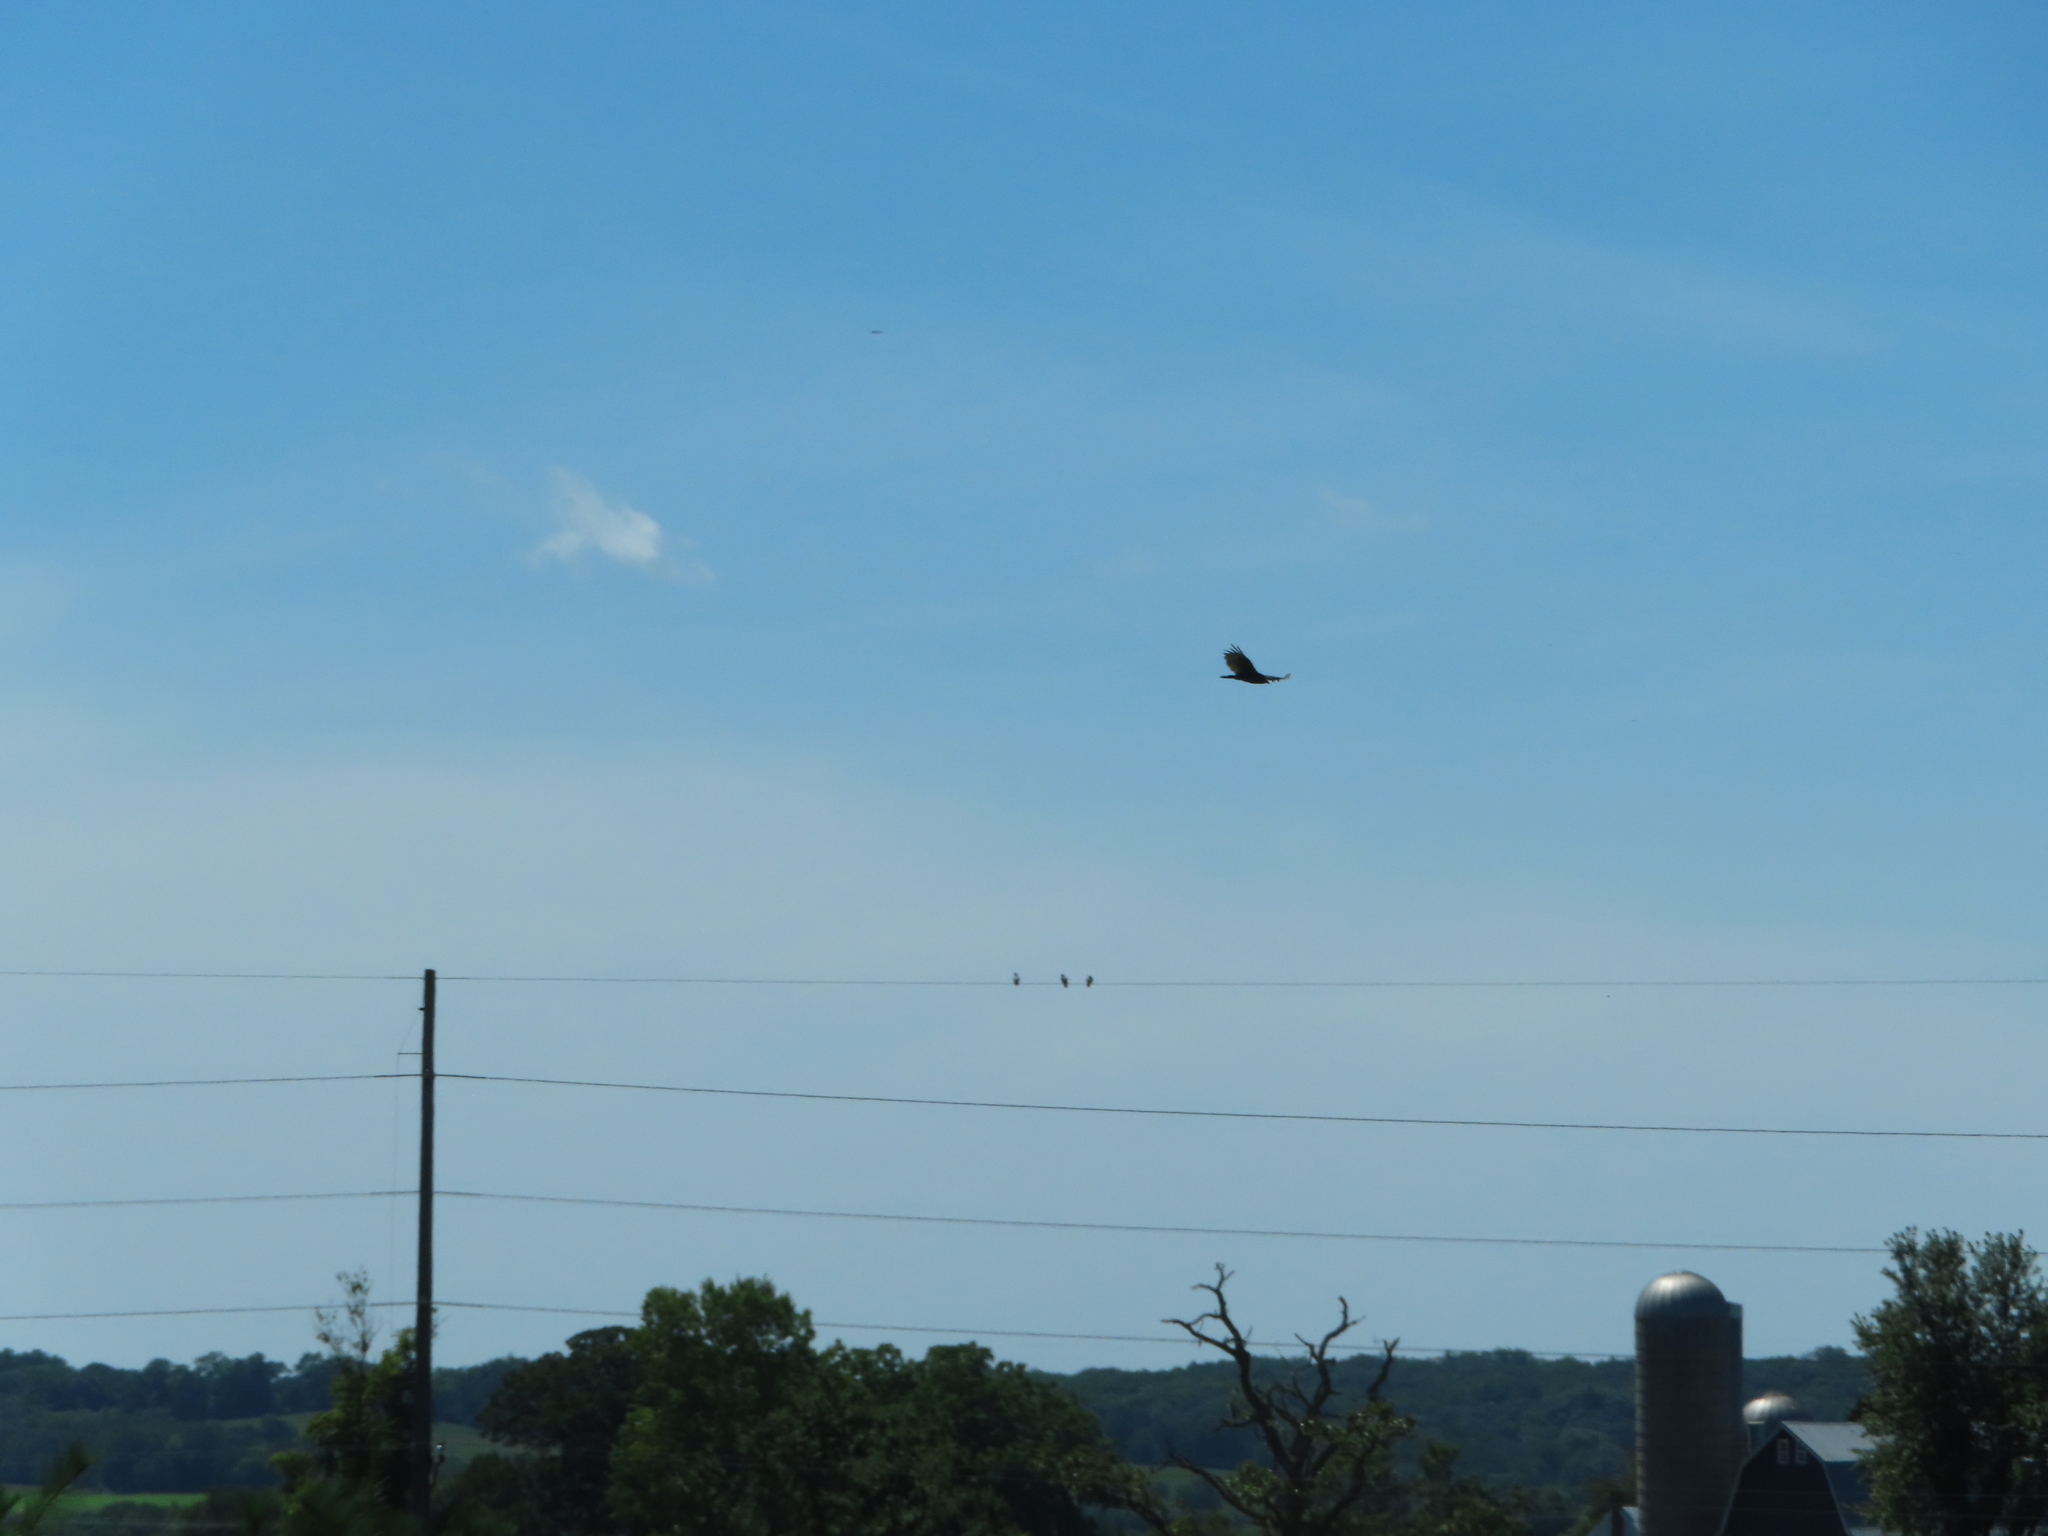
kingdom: Animalia
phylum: Chordata
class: Aves
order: Accipitriformes
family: Cathartidae
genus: Cathartes
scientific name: Cathartes aura
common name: Turkey vulture
